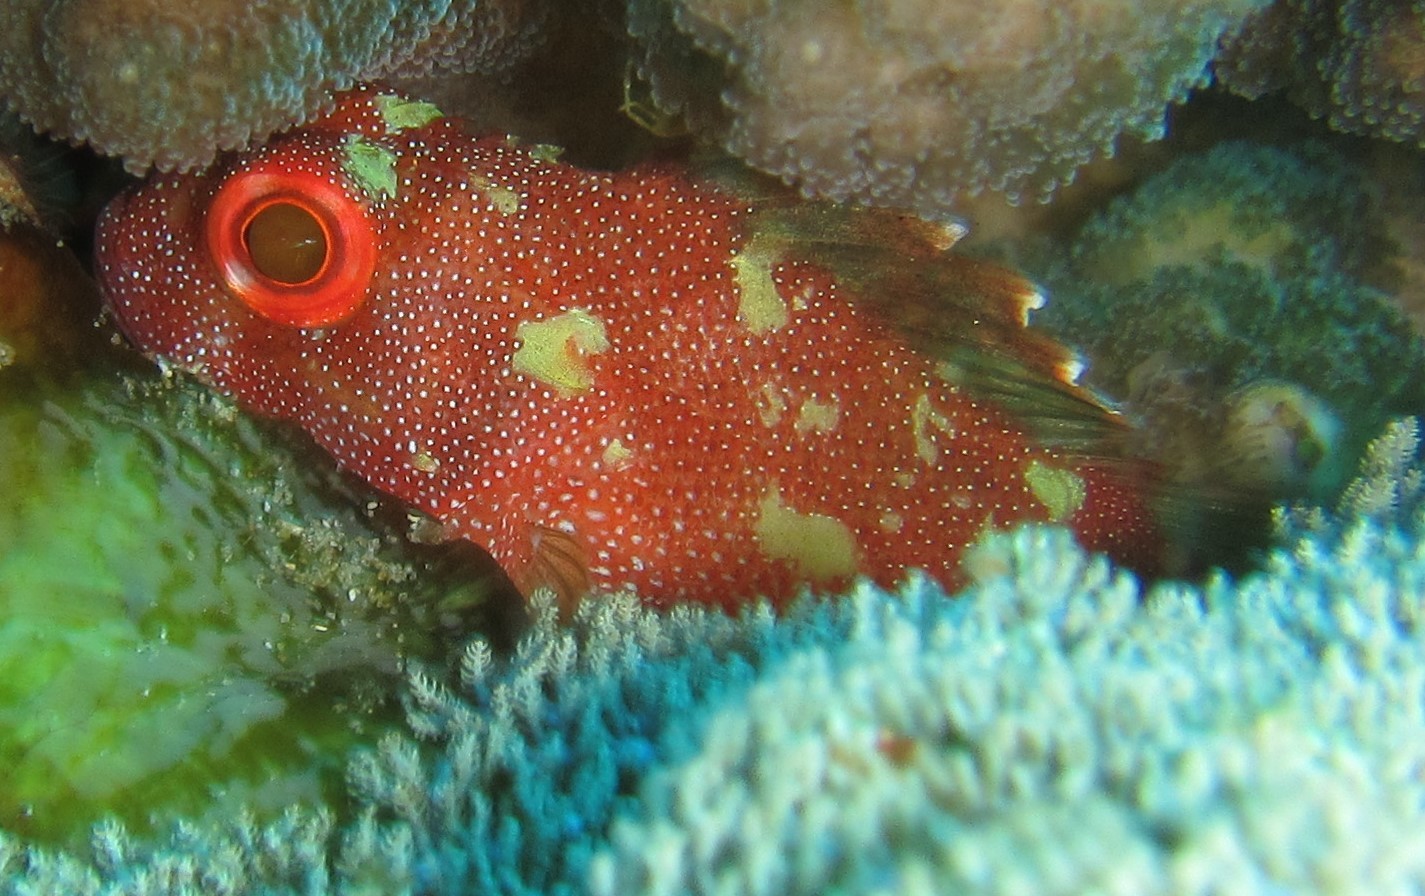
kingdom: Animalia
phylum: Chordata
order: Scorpaeniformes
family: Scorpaenidae
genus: Sebastapistes
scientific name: Sebastapistes cyanostigma
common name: Yellowspotted scorpionfish
